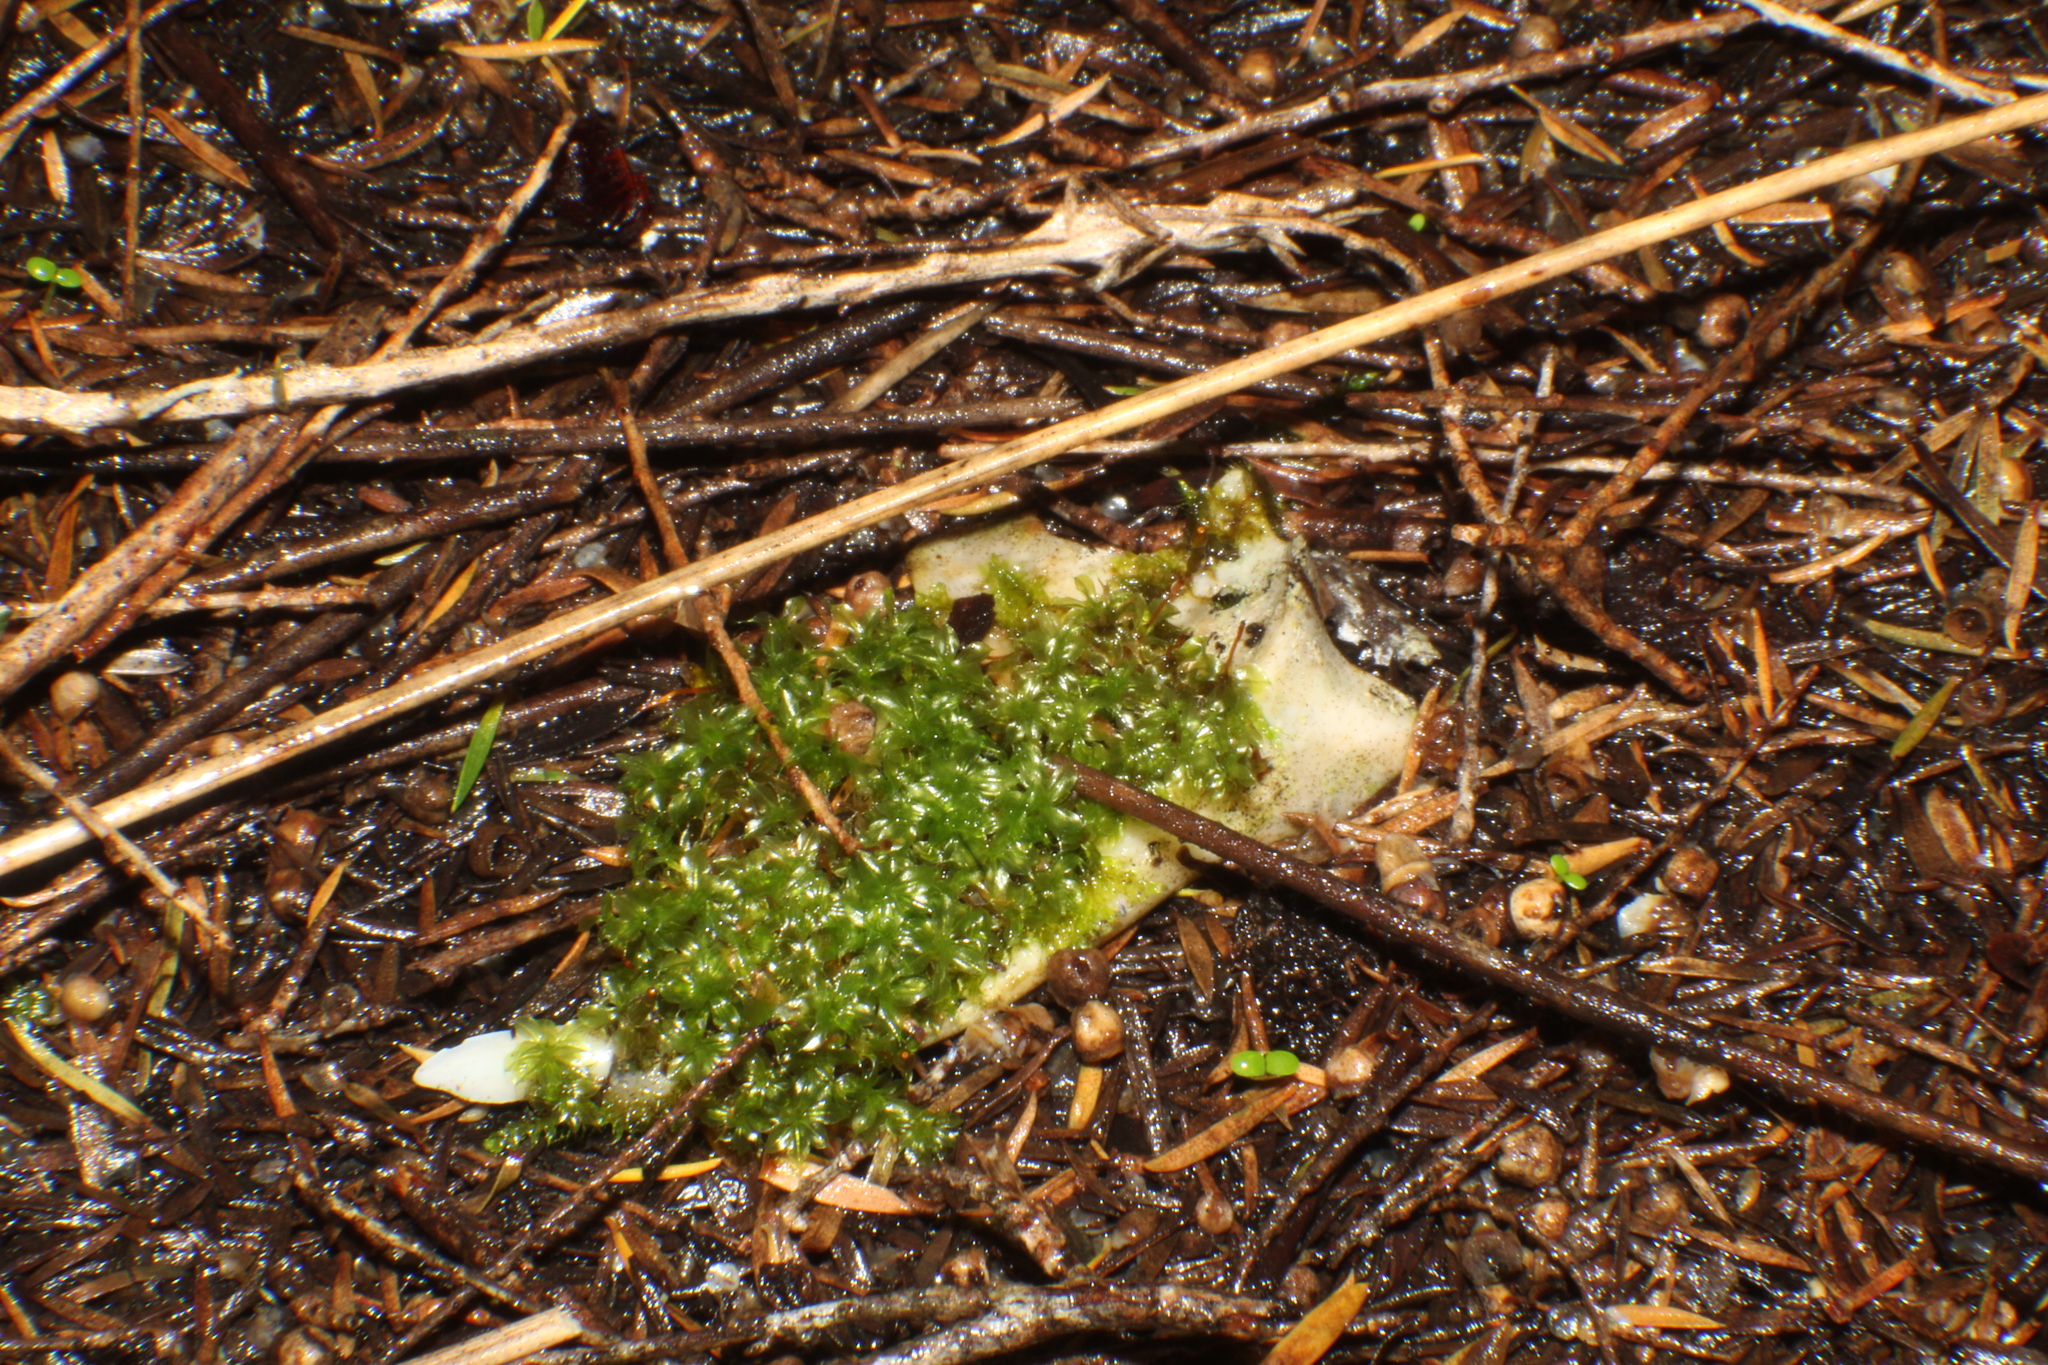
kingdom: Plantae
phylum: Bryophyta
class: Bryopsida
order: Splachnales
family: Splachnaceae
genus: Tayloria
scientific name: Tayloria octoblephara
